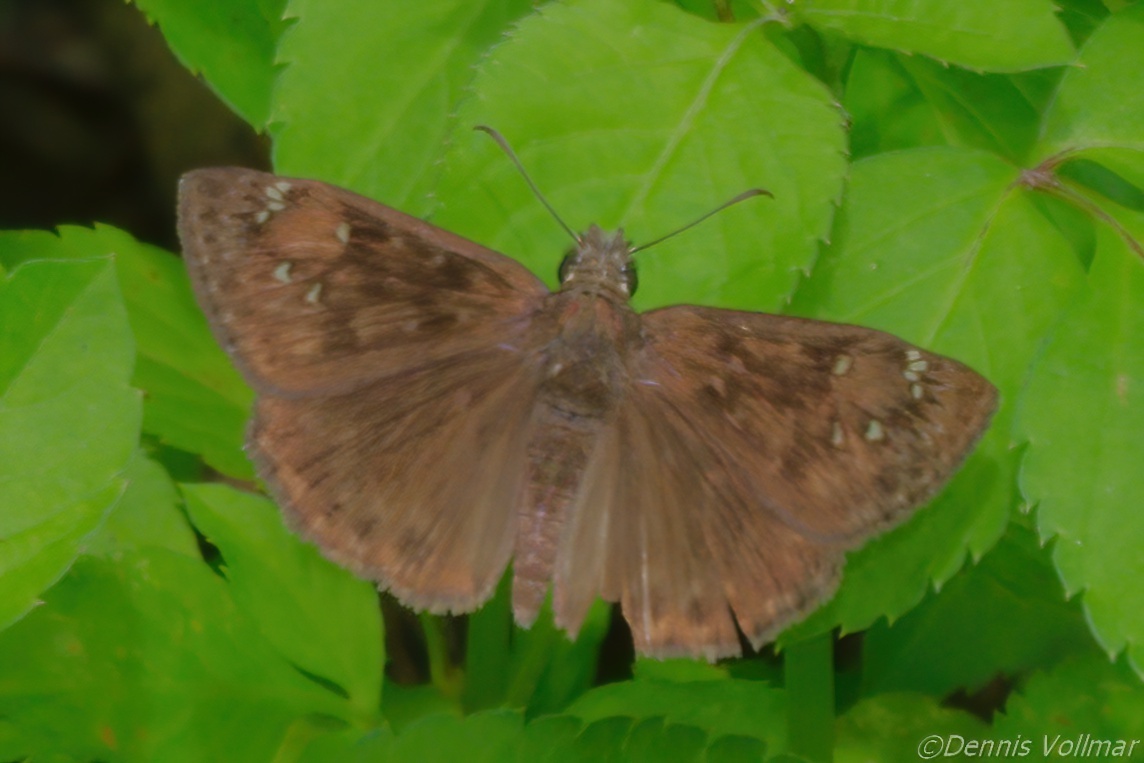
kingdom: Animalia
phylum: Arthropoda
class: Insecta
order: Lepidoptera
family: Hesperiidae
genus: Erynnis
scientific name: Erynnis horatius
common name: Horace's duskywing
